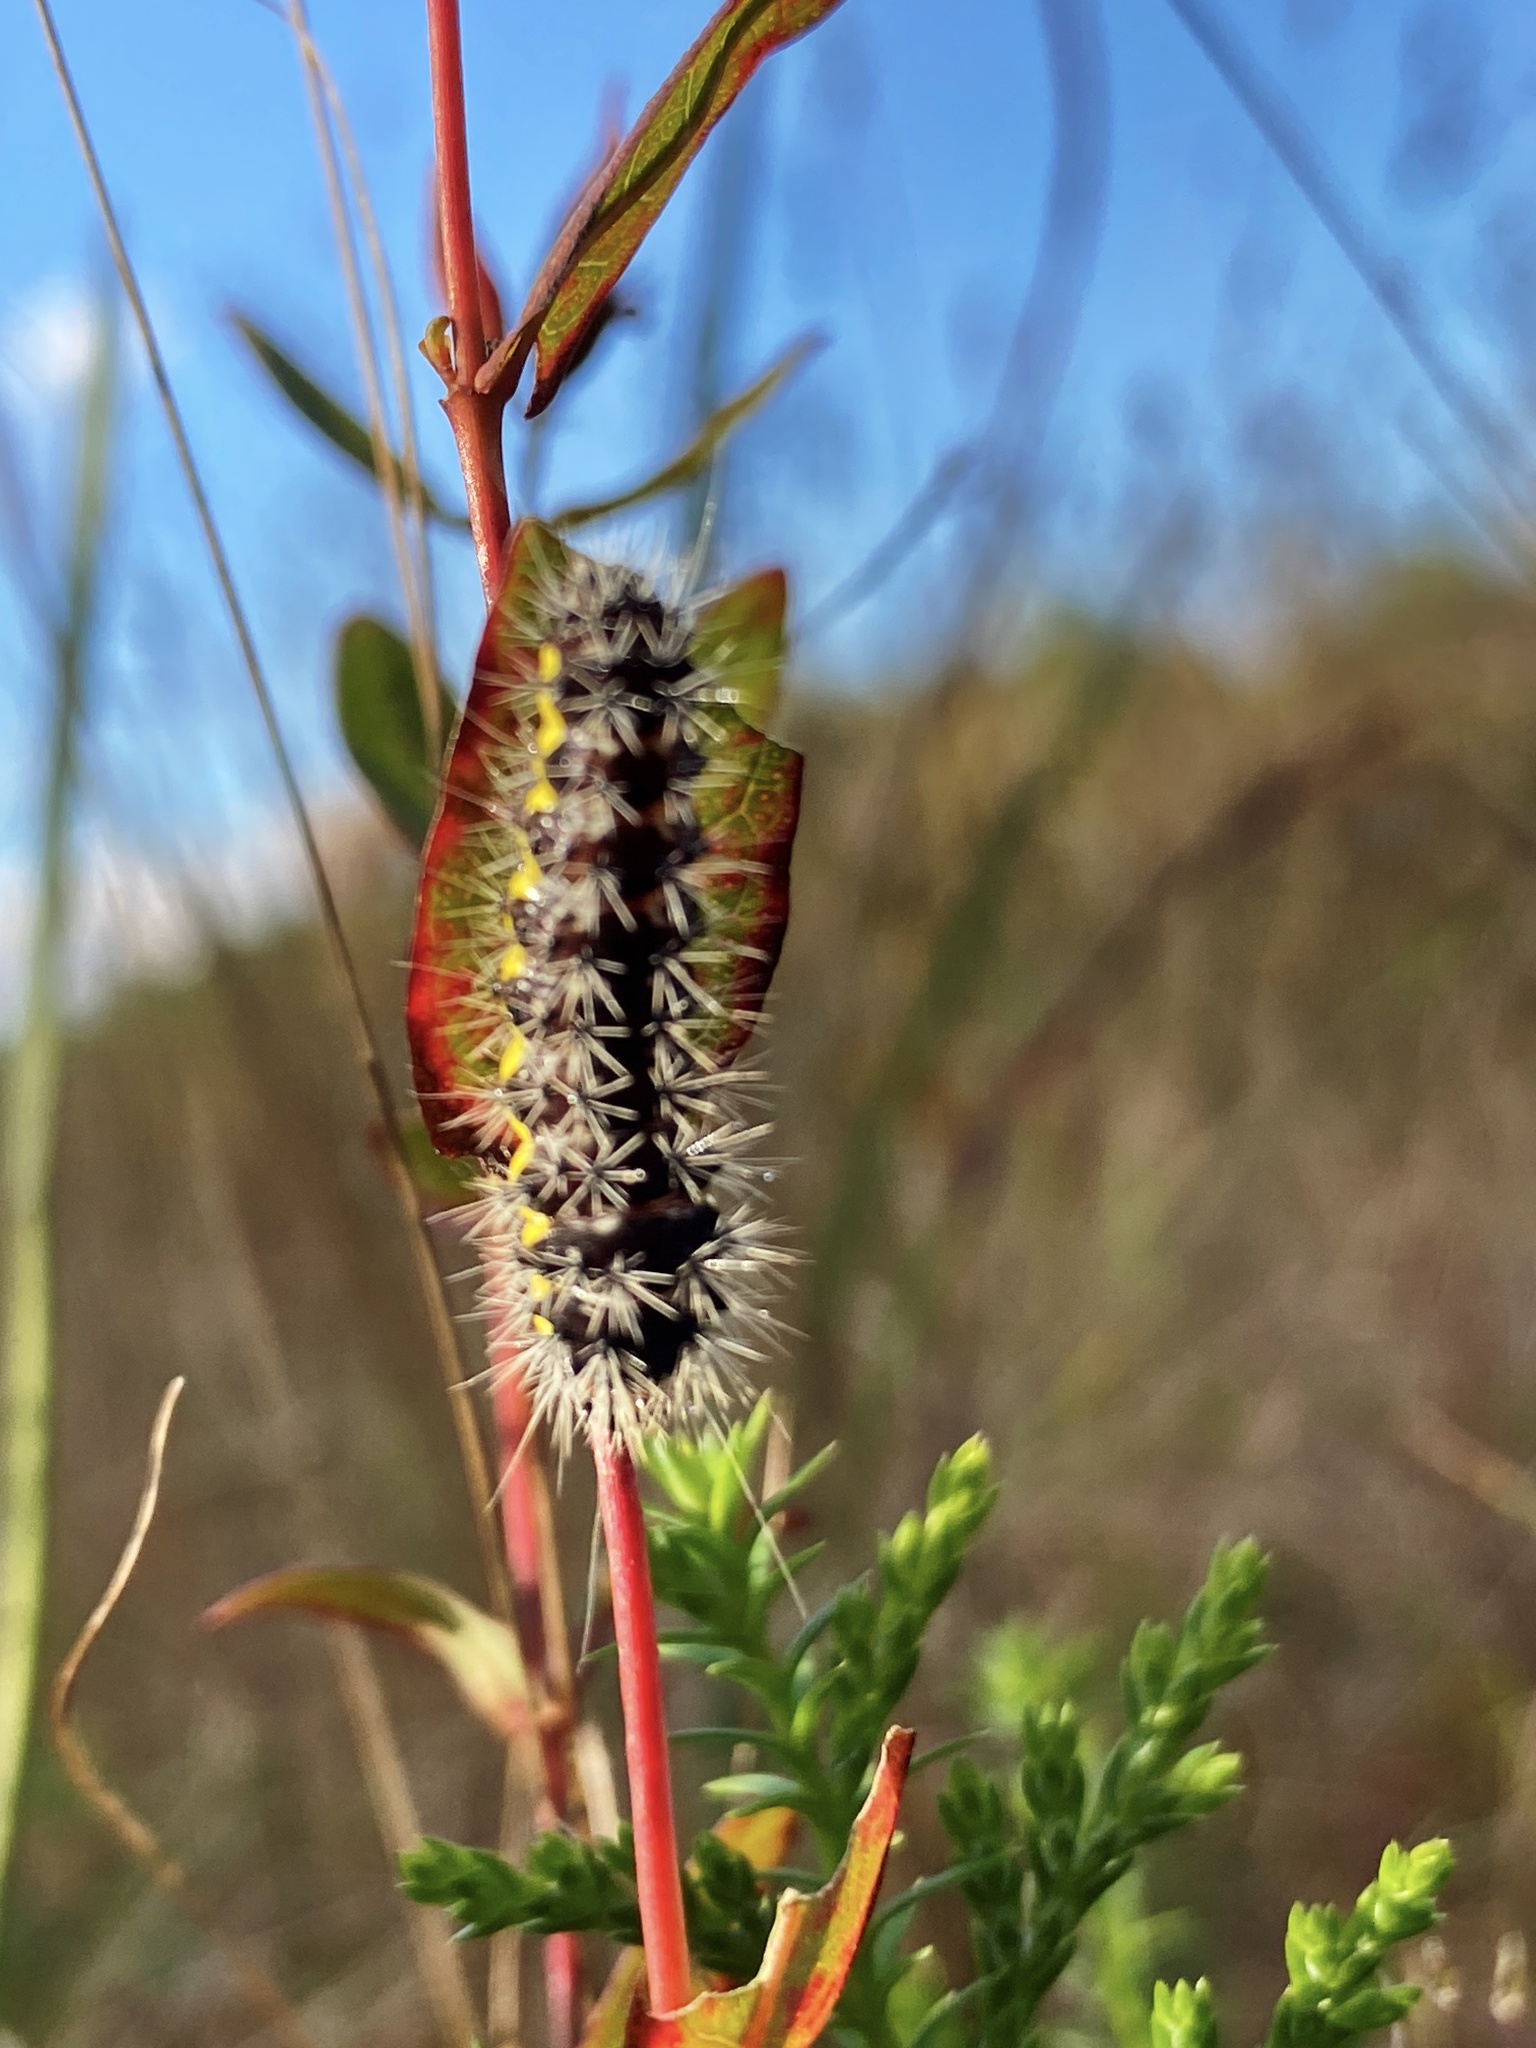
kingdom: Animalia
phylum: Arthropoda
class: Insecta
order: Lepidoptera
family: Noctuidae
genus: Acronicta
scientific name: Acronicta oblinita
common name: Smeared dagger
